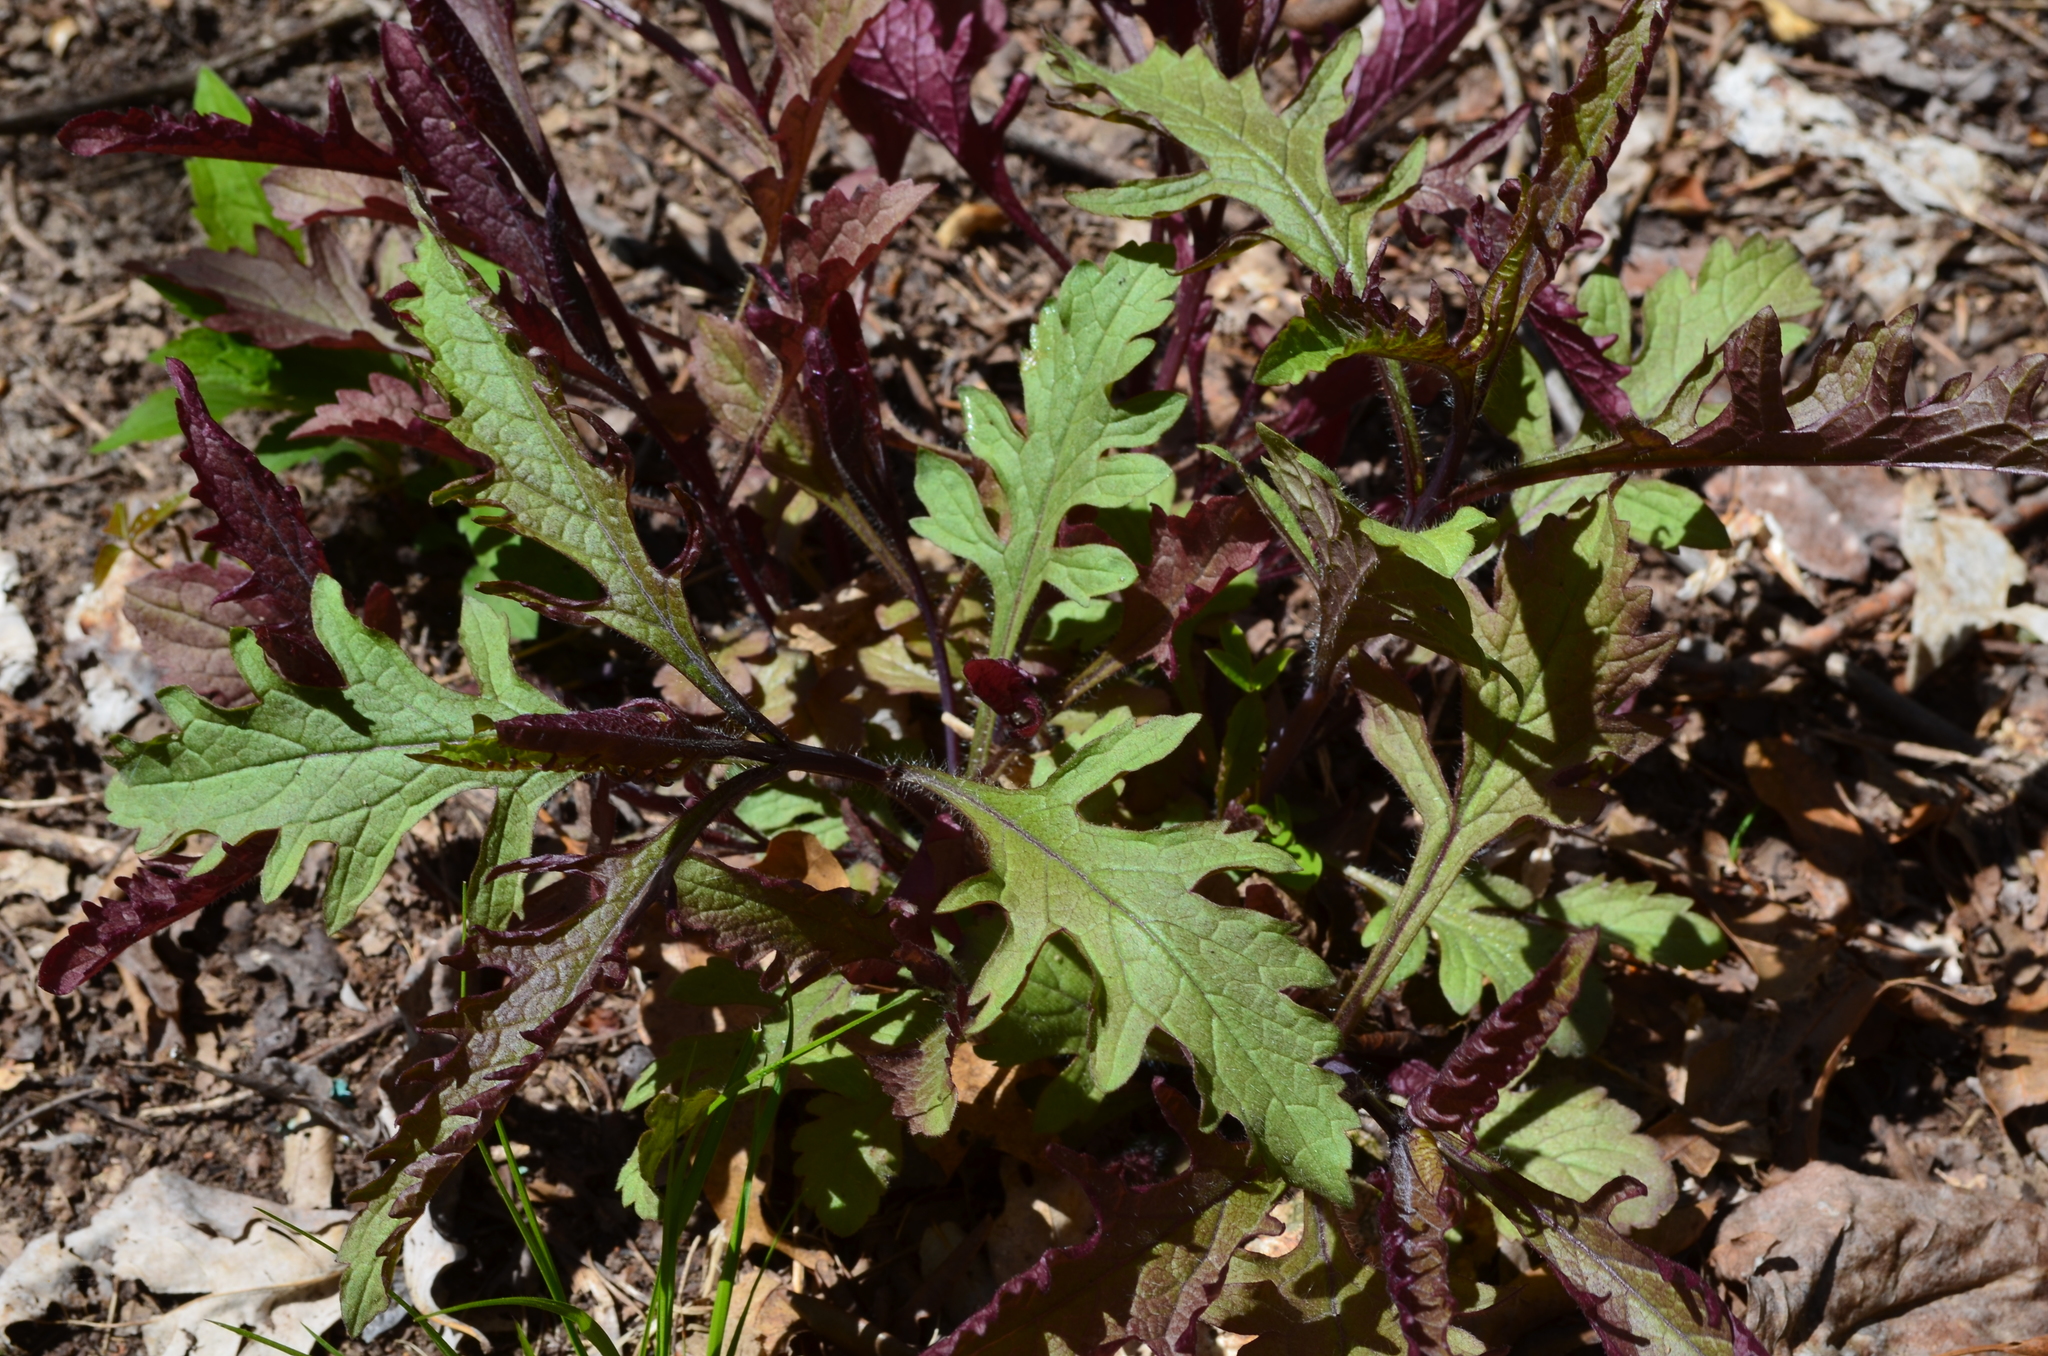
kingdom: Plantae
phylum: Tracheophyta
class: Magnoliopsida
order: Lamiales
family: Orobanchaceae
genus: Dasistoma
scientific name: Dasistoma macrophyllum
